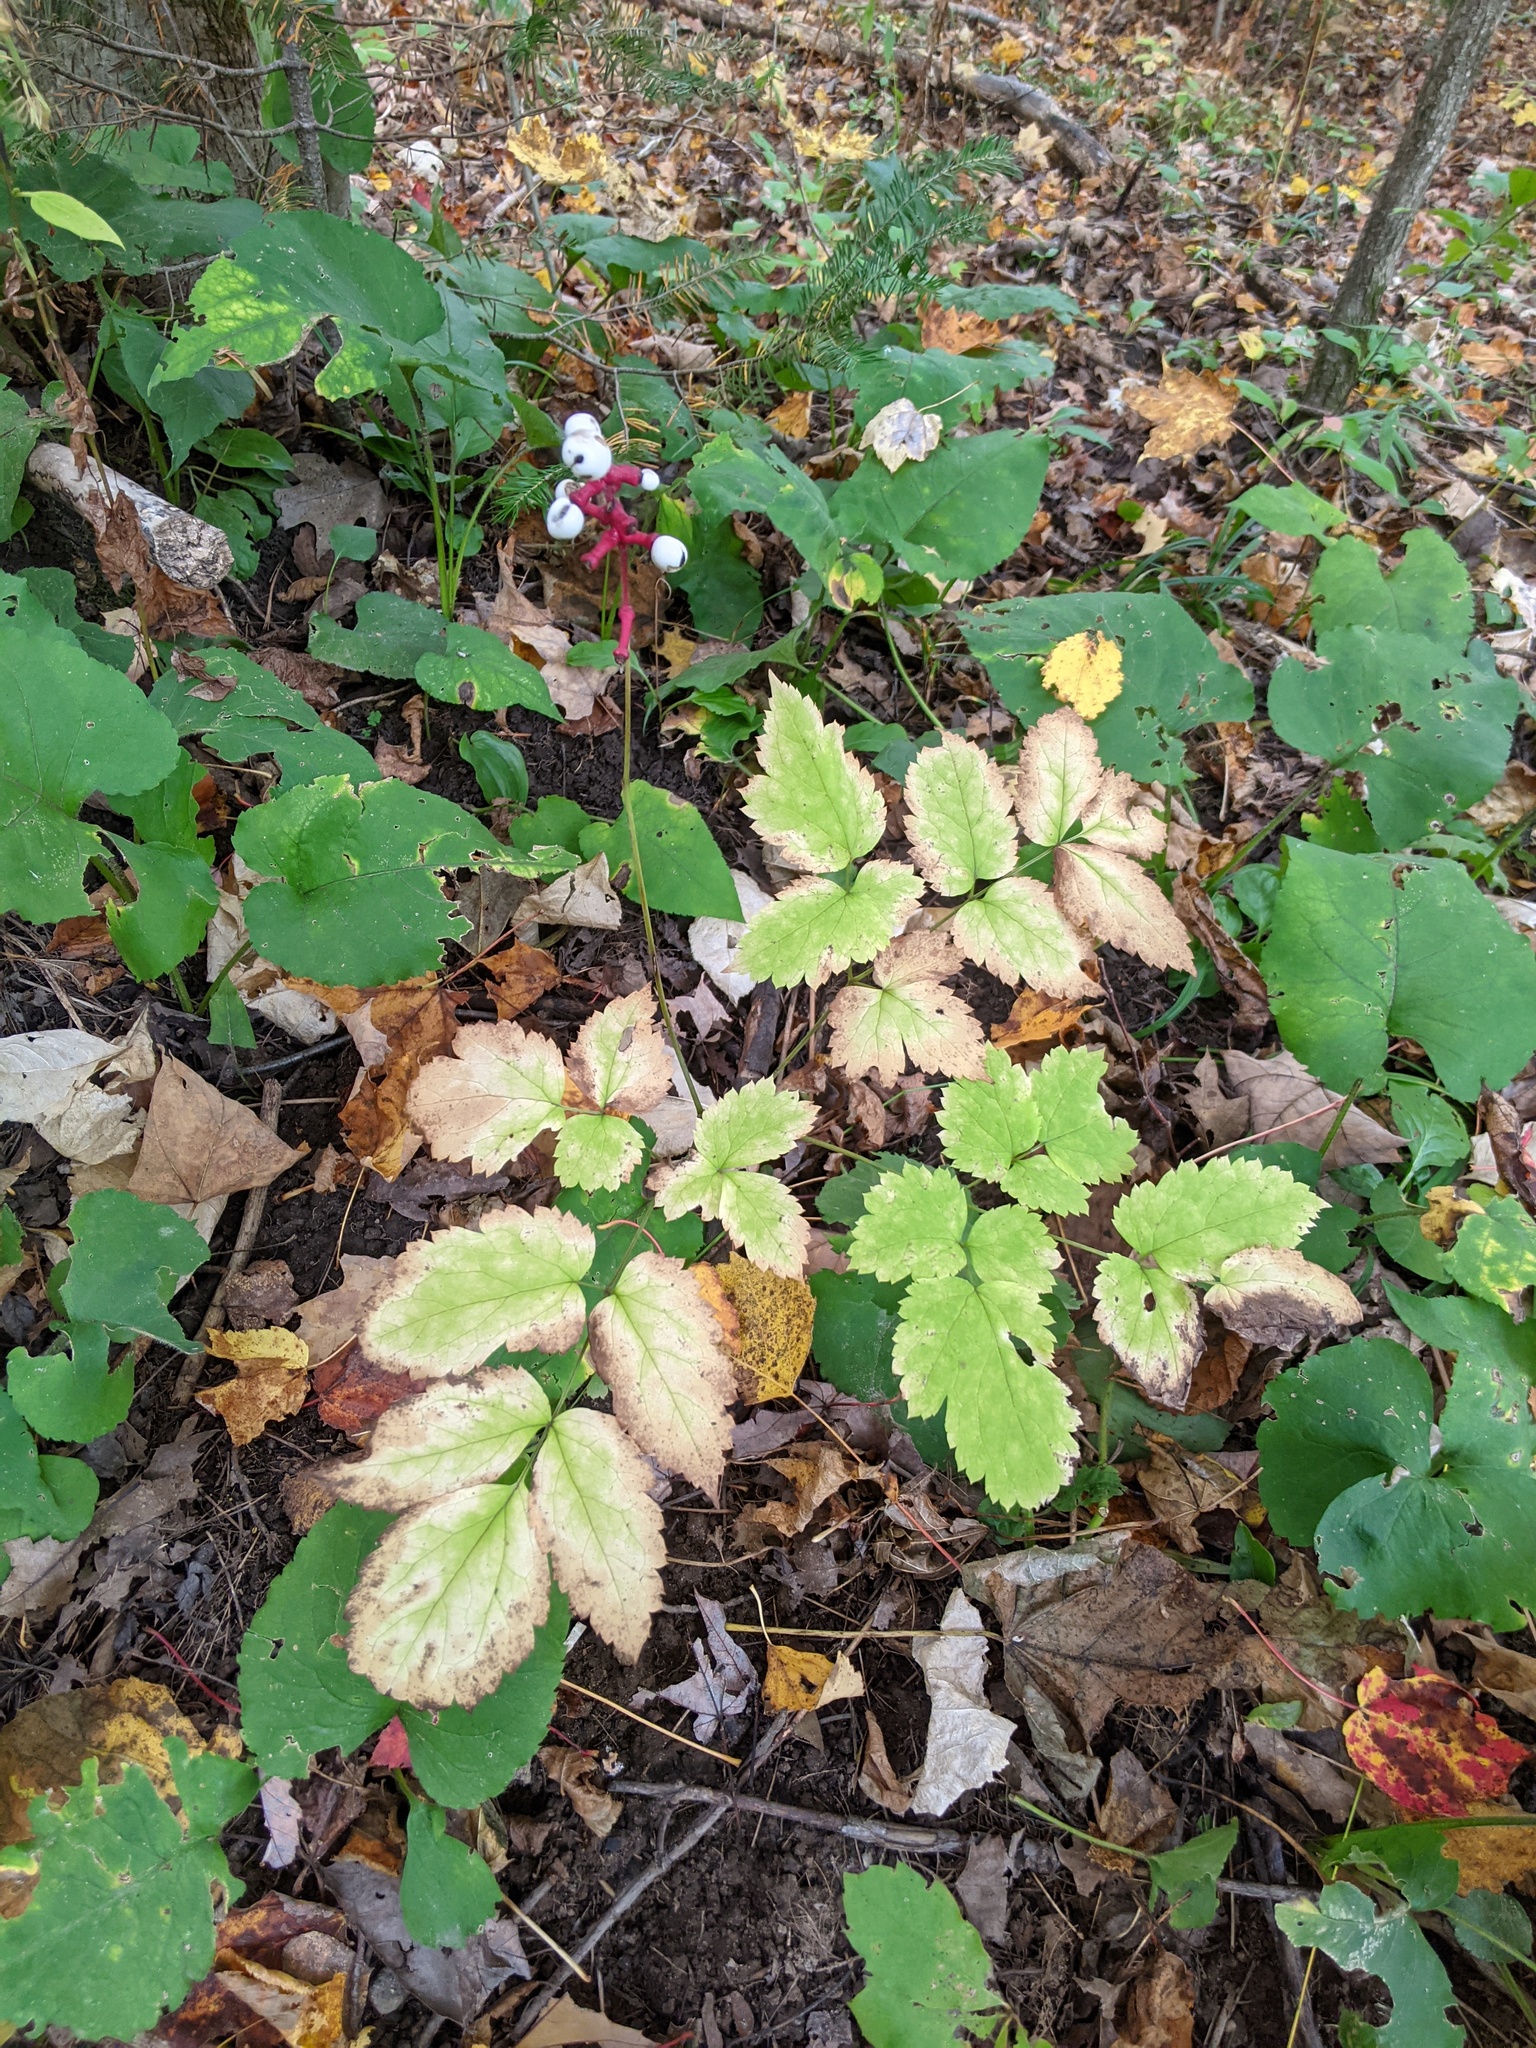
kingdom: Plantae
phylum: Tracheophyta
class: Magnoliopsida
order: Ranunculales
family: Ranunculaceae
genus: Actaea
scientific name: Actaea pachypoda
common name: Doll's-eyes
